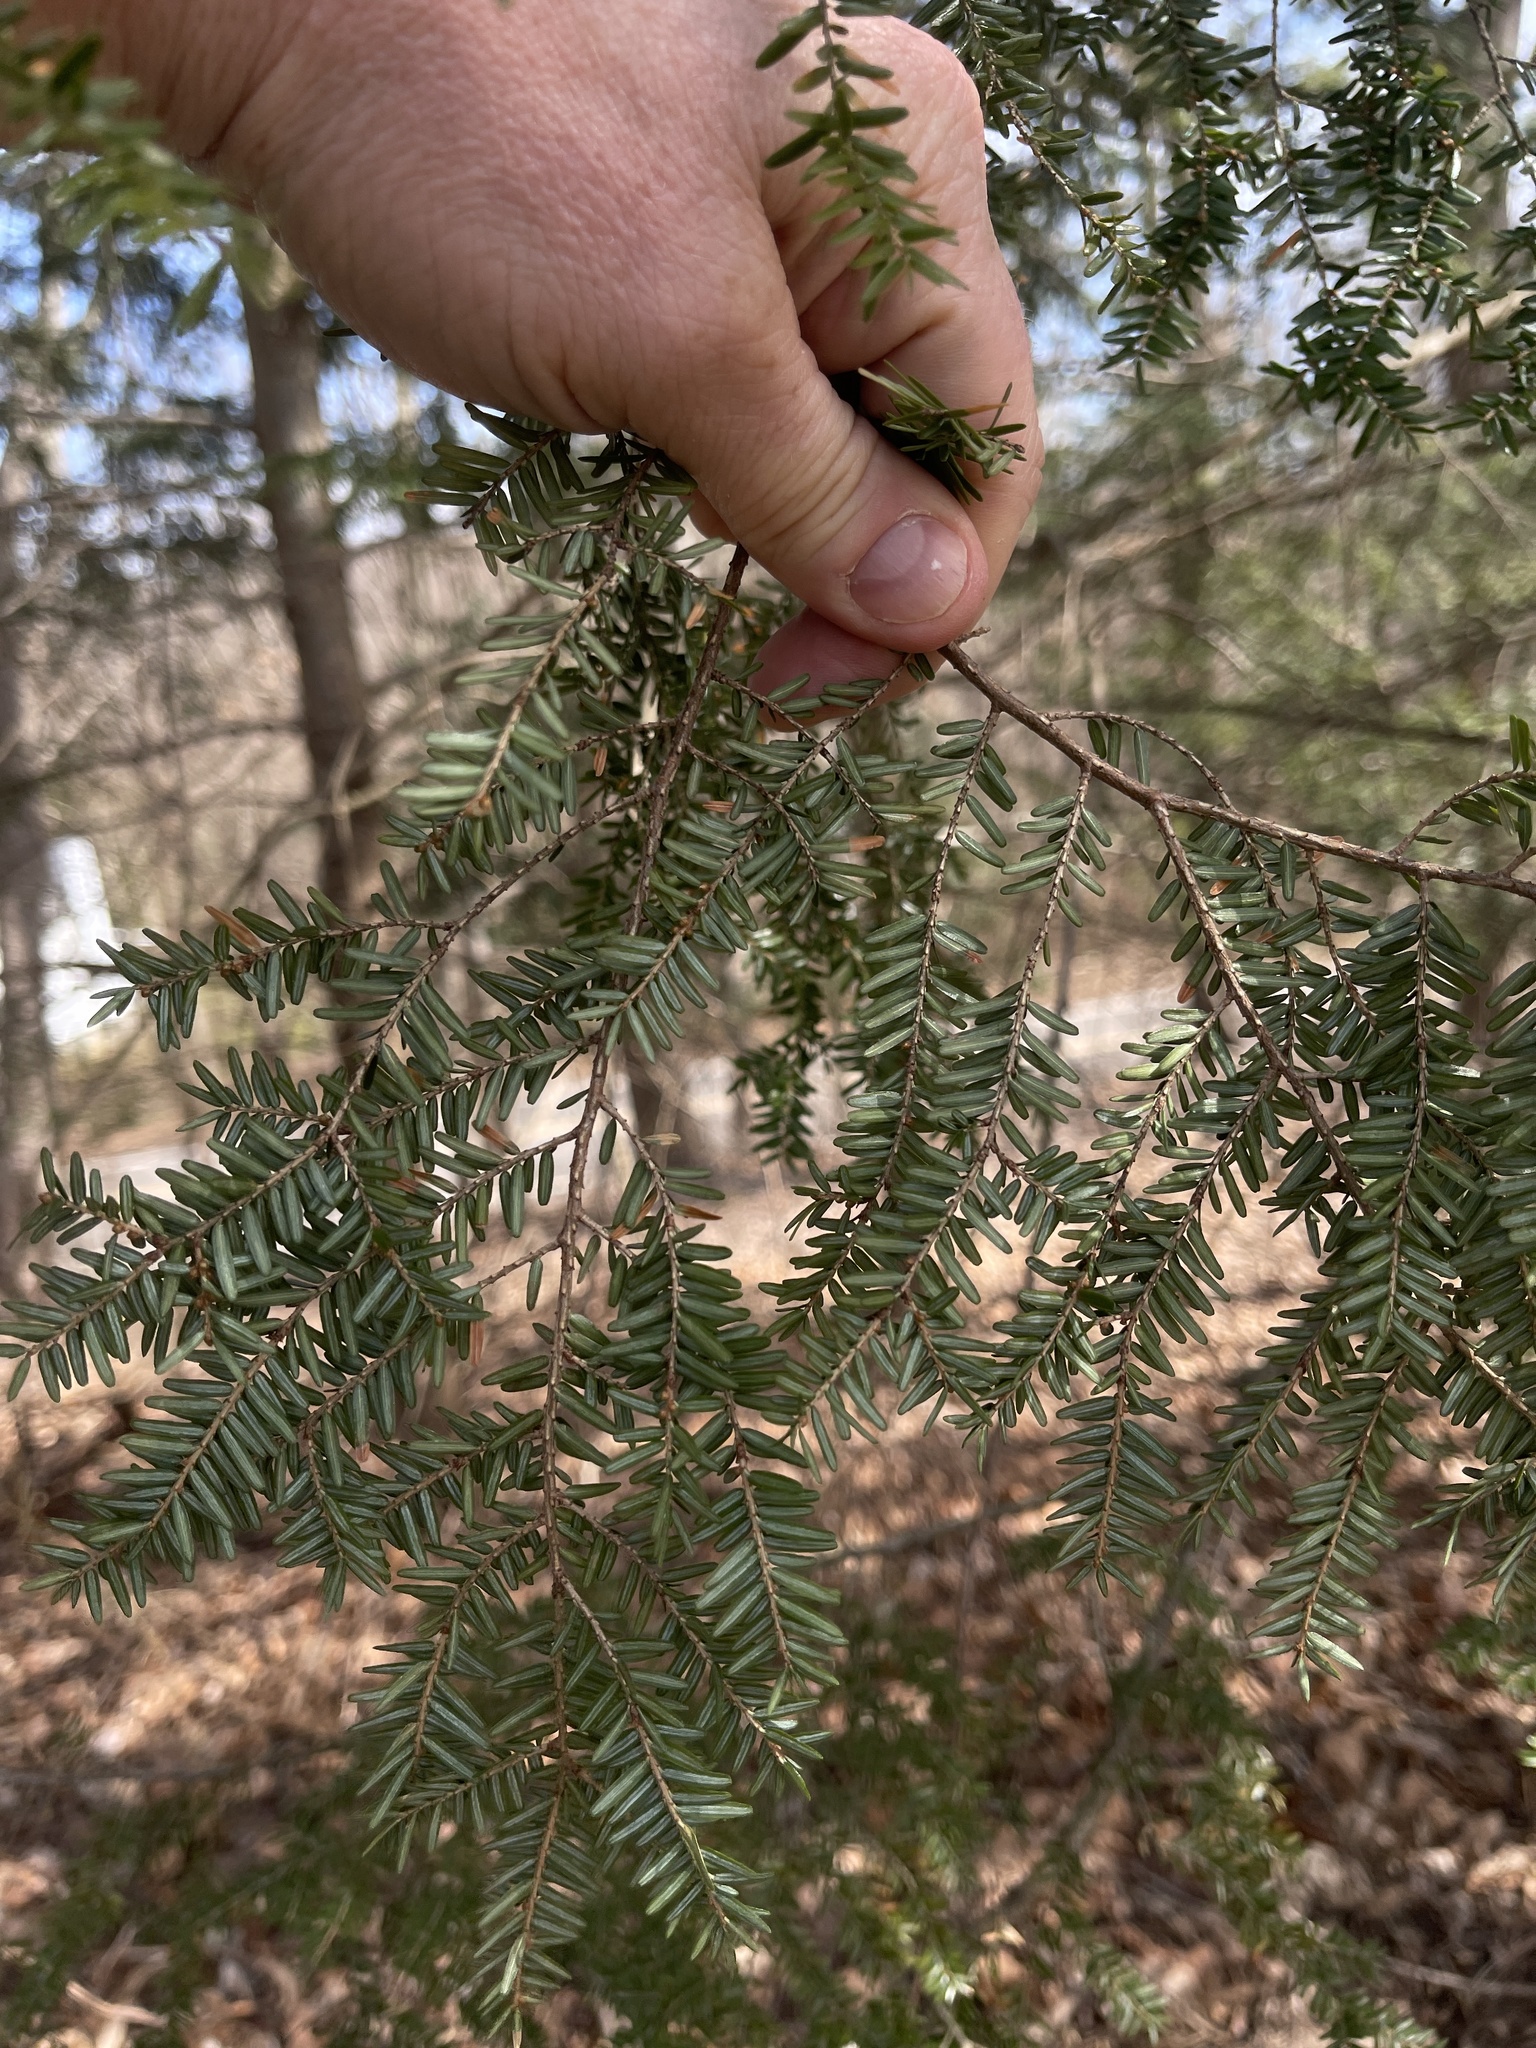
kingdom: Plantae
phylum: Tracheophyta
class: Pinopsida
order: Pinales
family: Pinaceae
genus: Tsuga
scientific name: Tsuga canadensis
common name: Eastern hemlock
